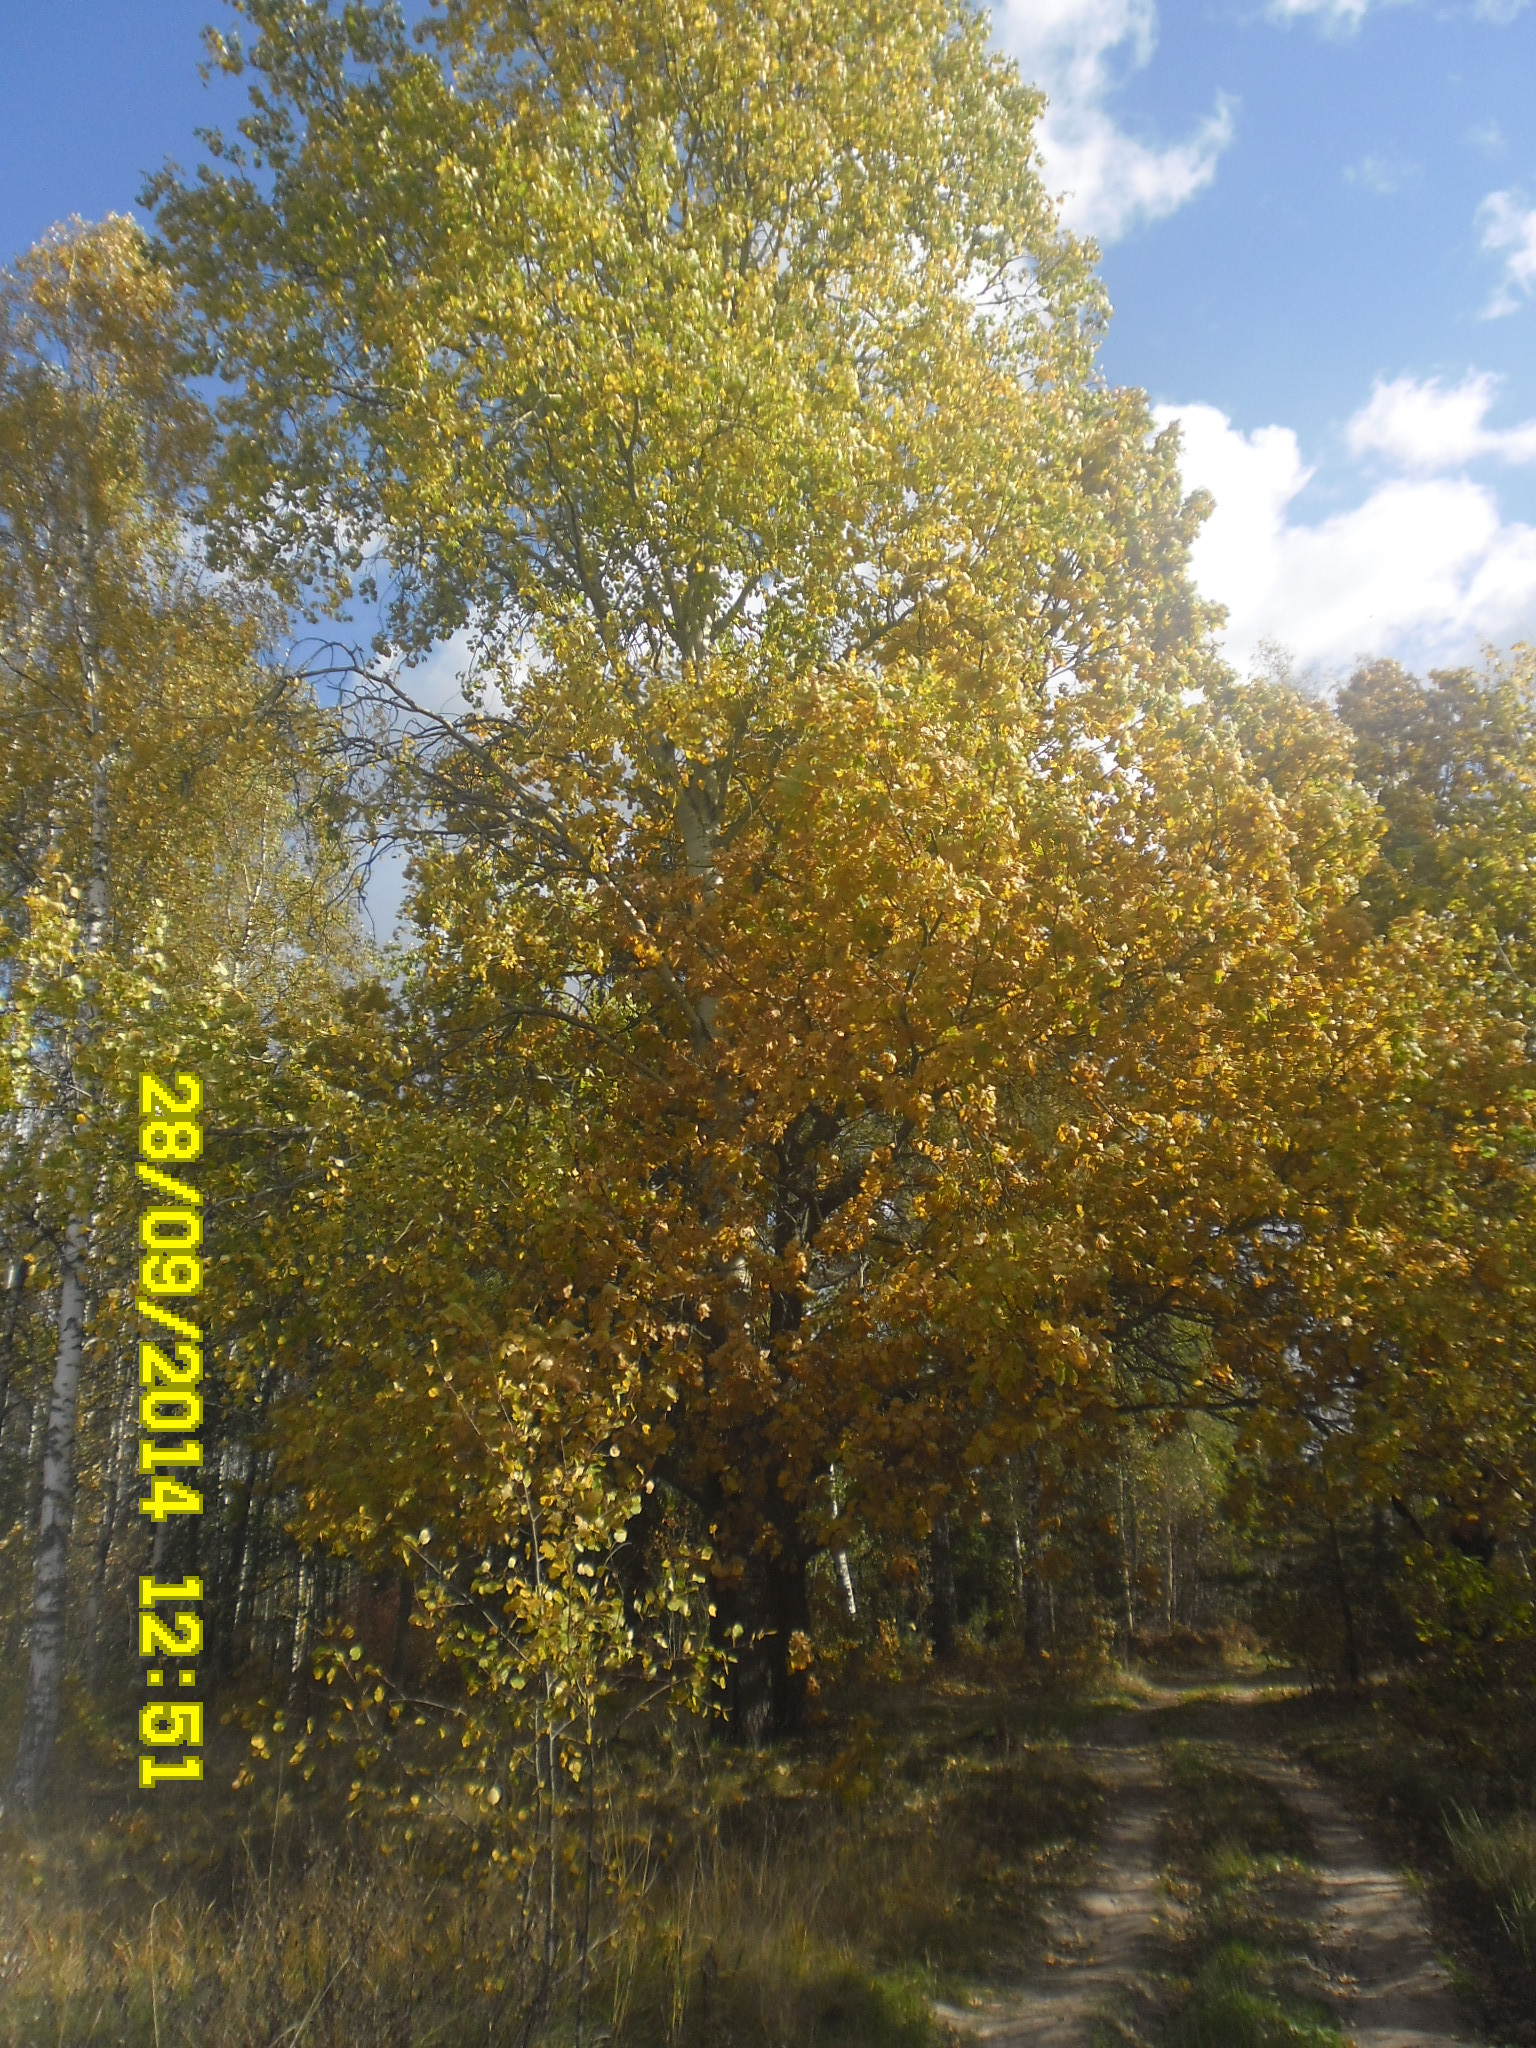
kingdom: Plantae
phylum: Tracheophyta
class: Magnoliopsida
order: Fagales
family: Fagaceae
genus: Quercus
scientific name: Quercus robur
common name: Pedunculate oak
